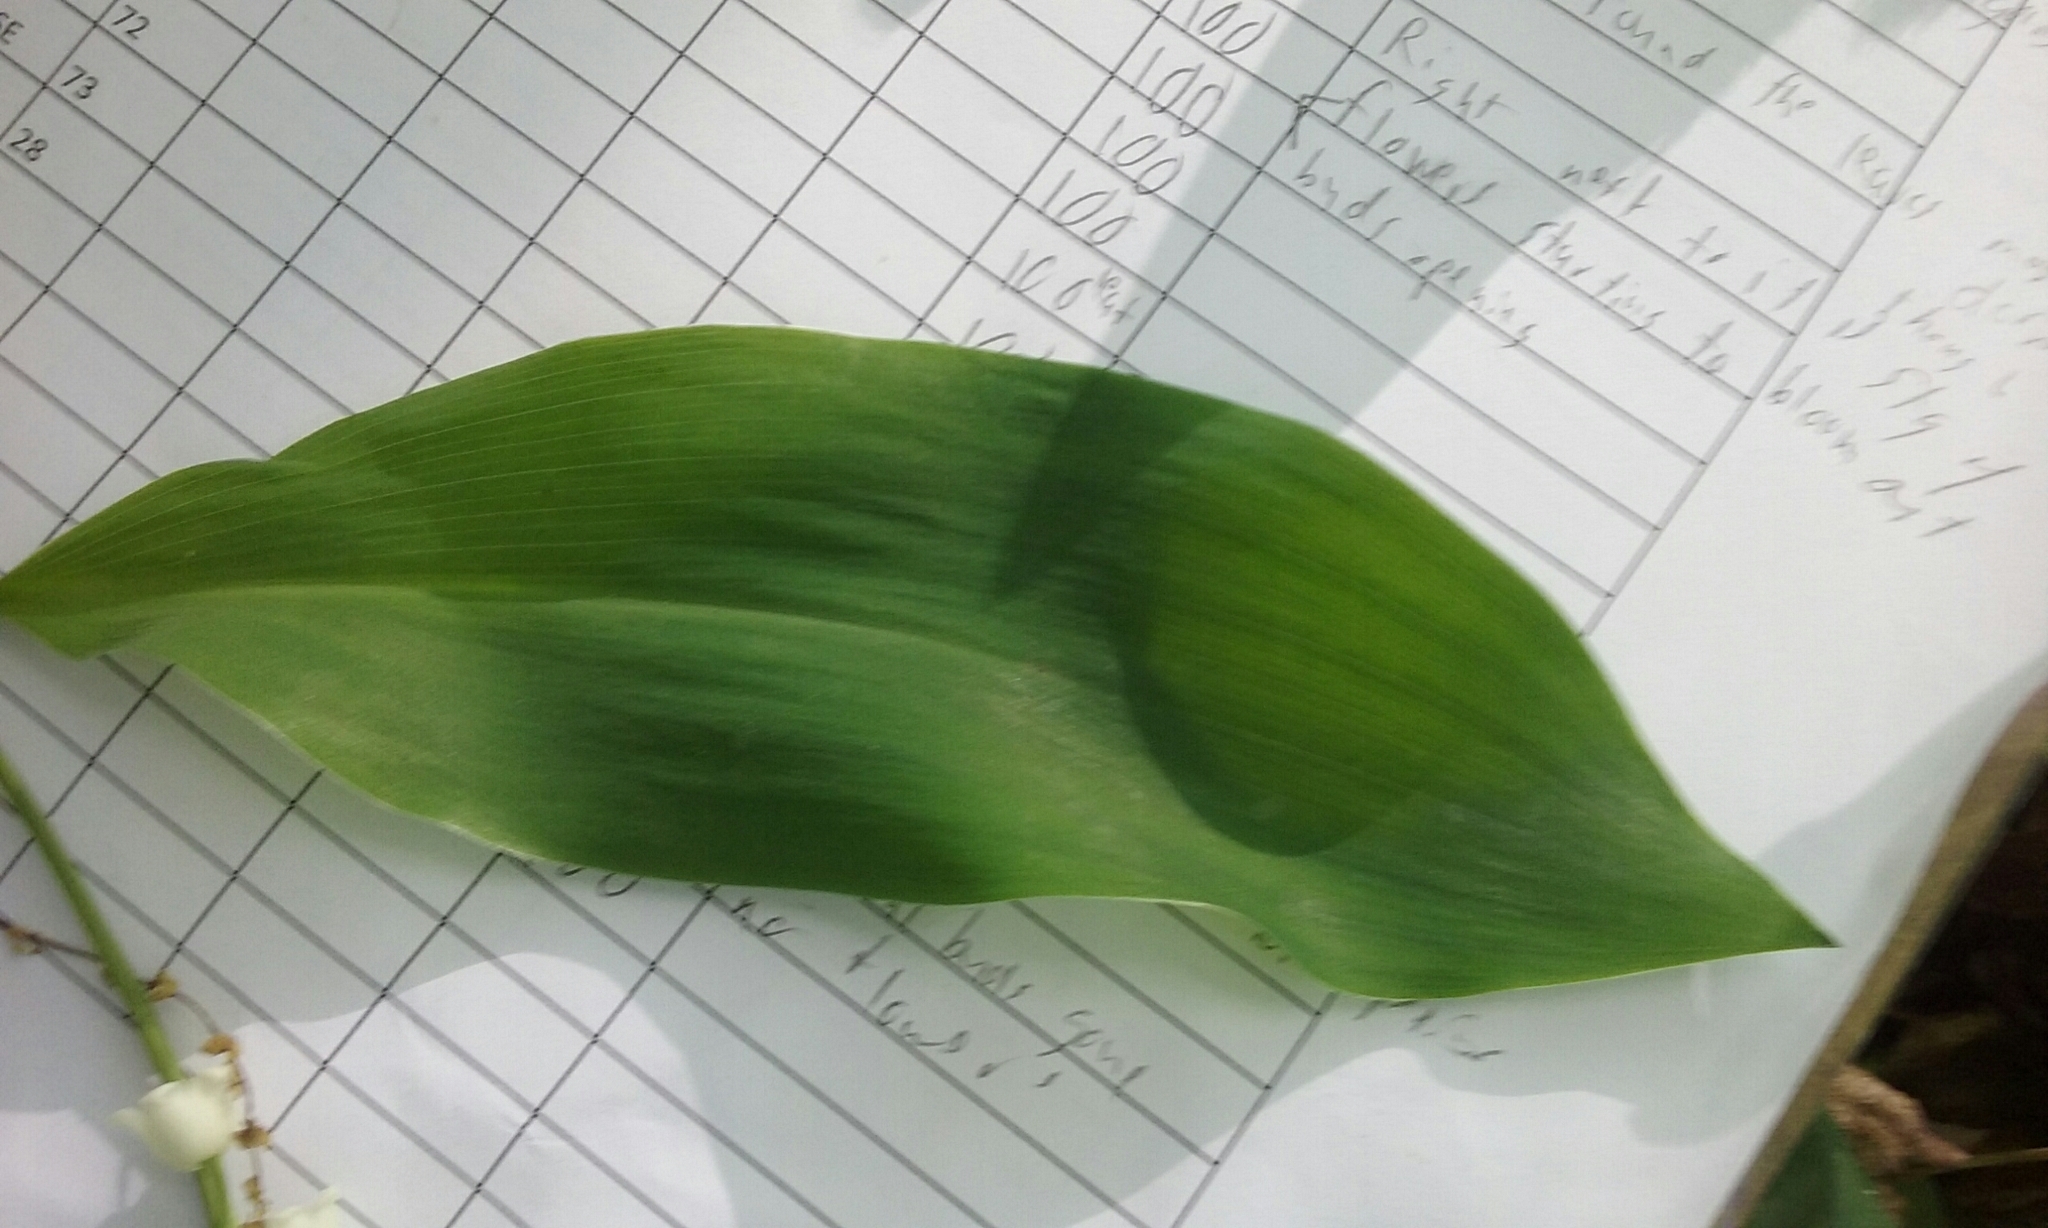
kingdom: Plantae
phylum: Tracheophyta
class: Liliopsida
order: Asparagales
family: Asparagaceae
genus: Convallaria
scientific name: Convallaria majalis
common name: Lily-of-the-valley
